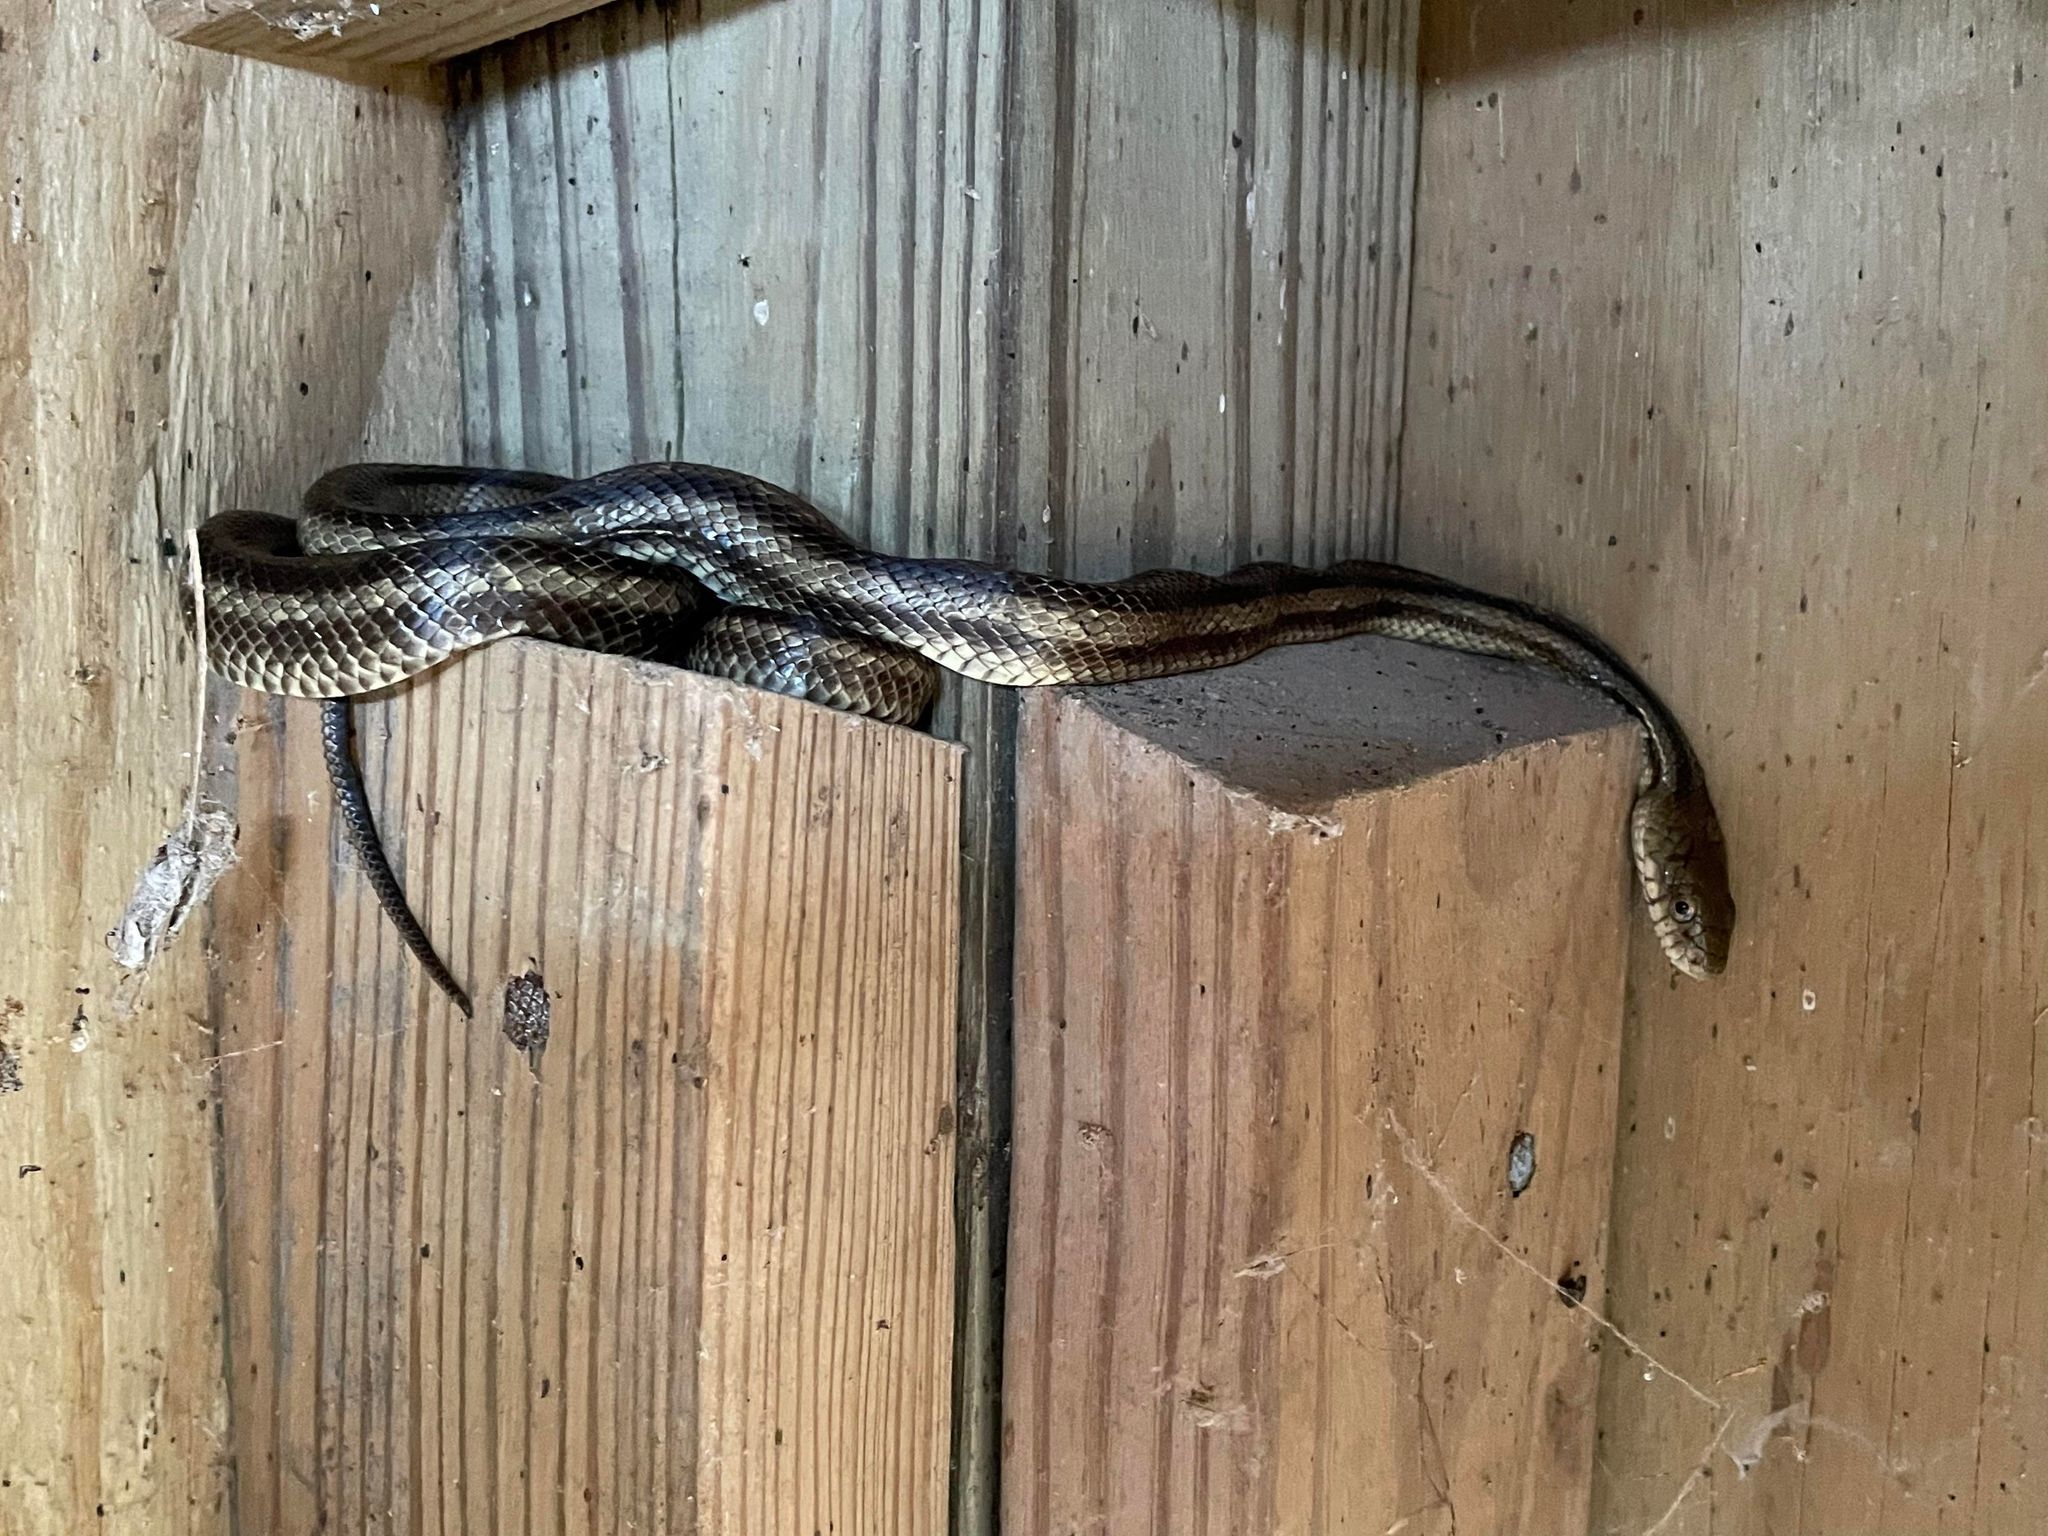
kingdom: Animalia
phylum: Chordata
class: Squamata
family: Colubridae
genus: Pantherophis
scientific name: Pantherophis alleghaniensis
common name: Eastern rat snake
